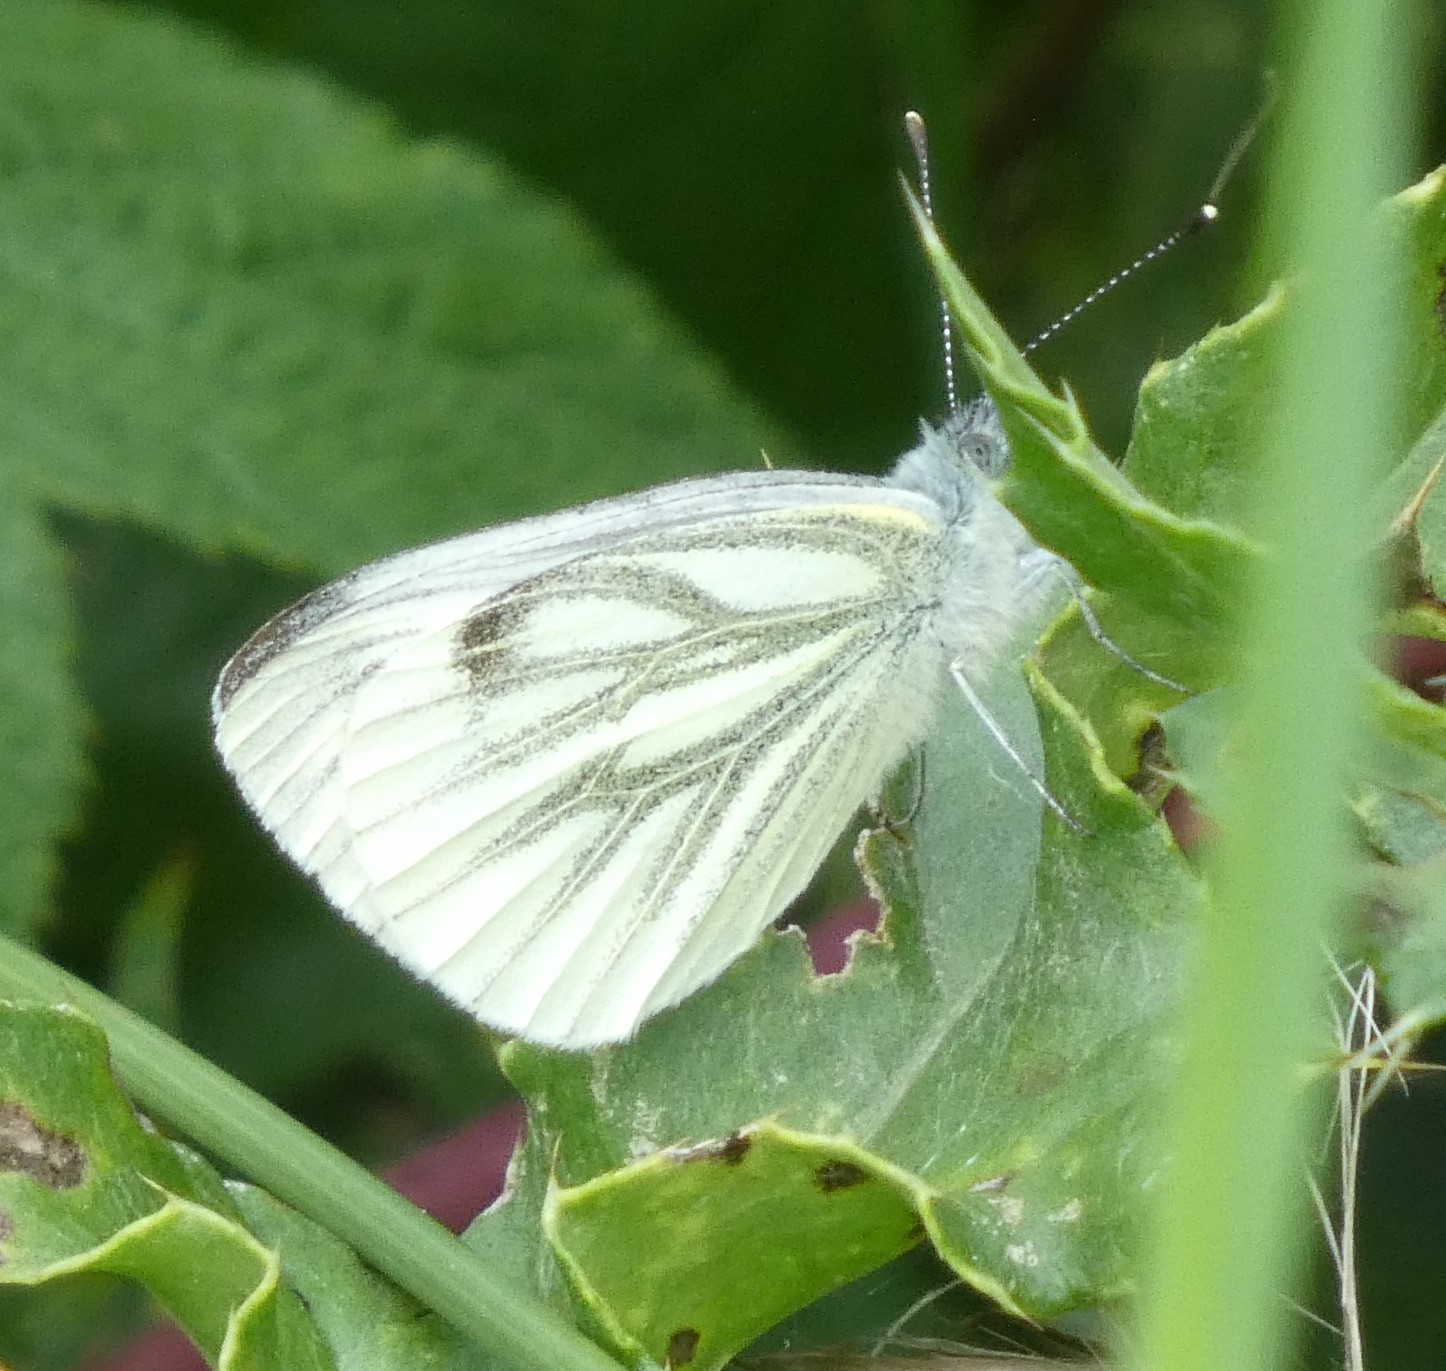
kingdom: Animalia
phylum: Arthropoda
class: Insecta
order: Lepidoptera
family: Pieridae
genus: Pieris
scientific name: Pieris napi
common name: Green-veined white
